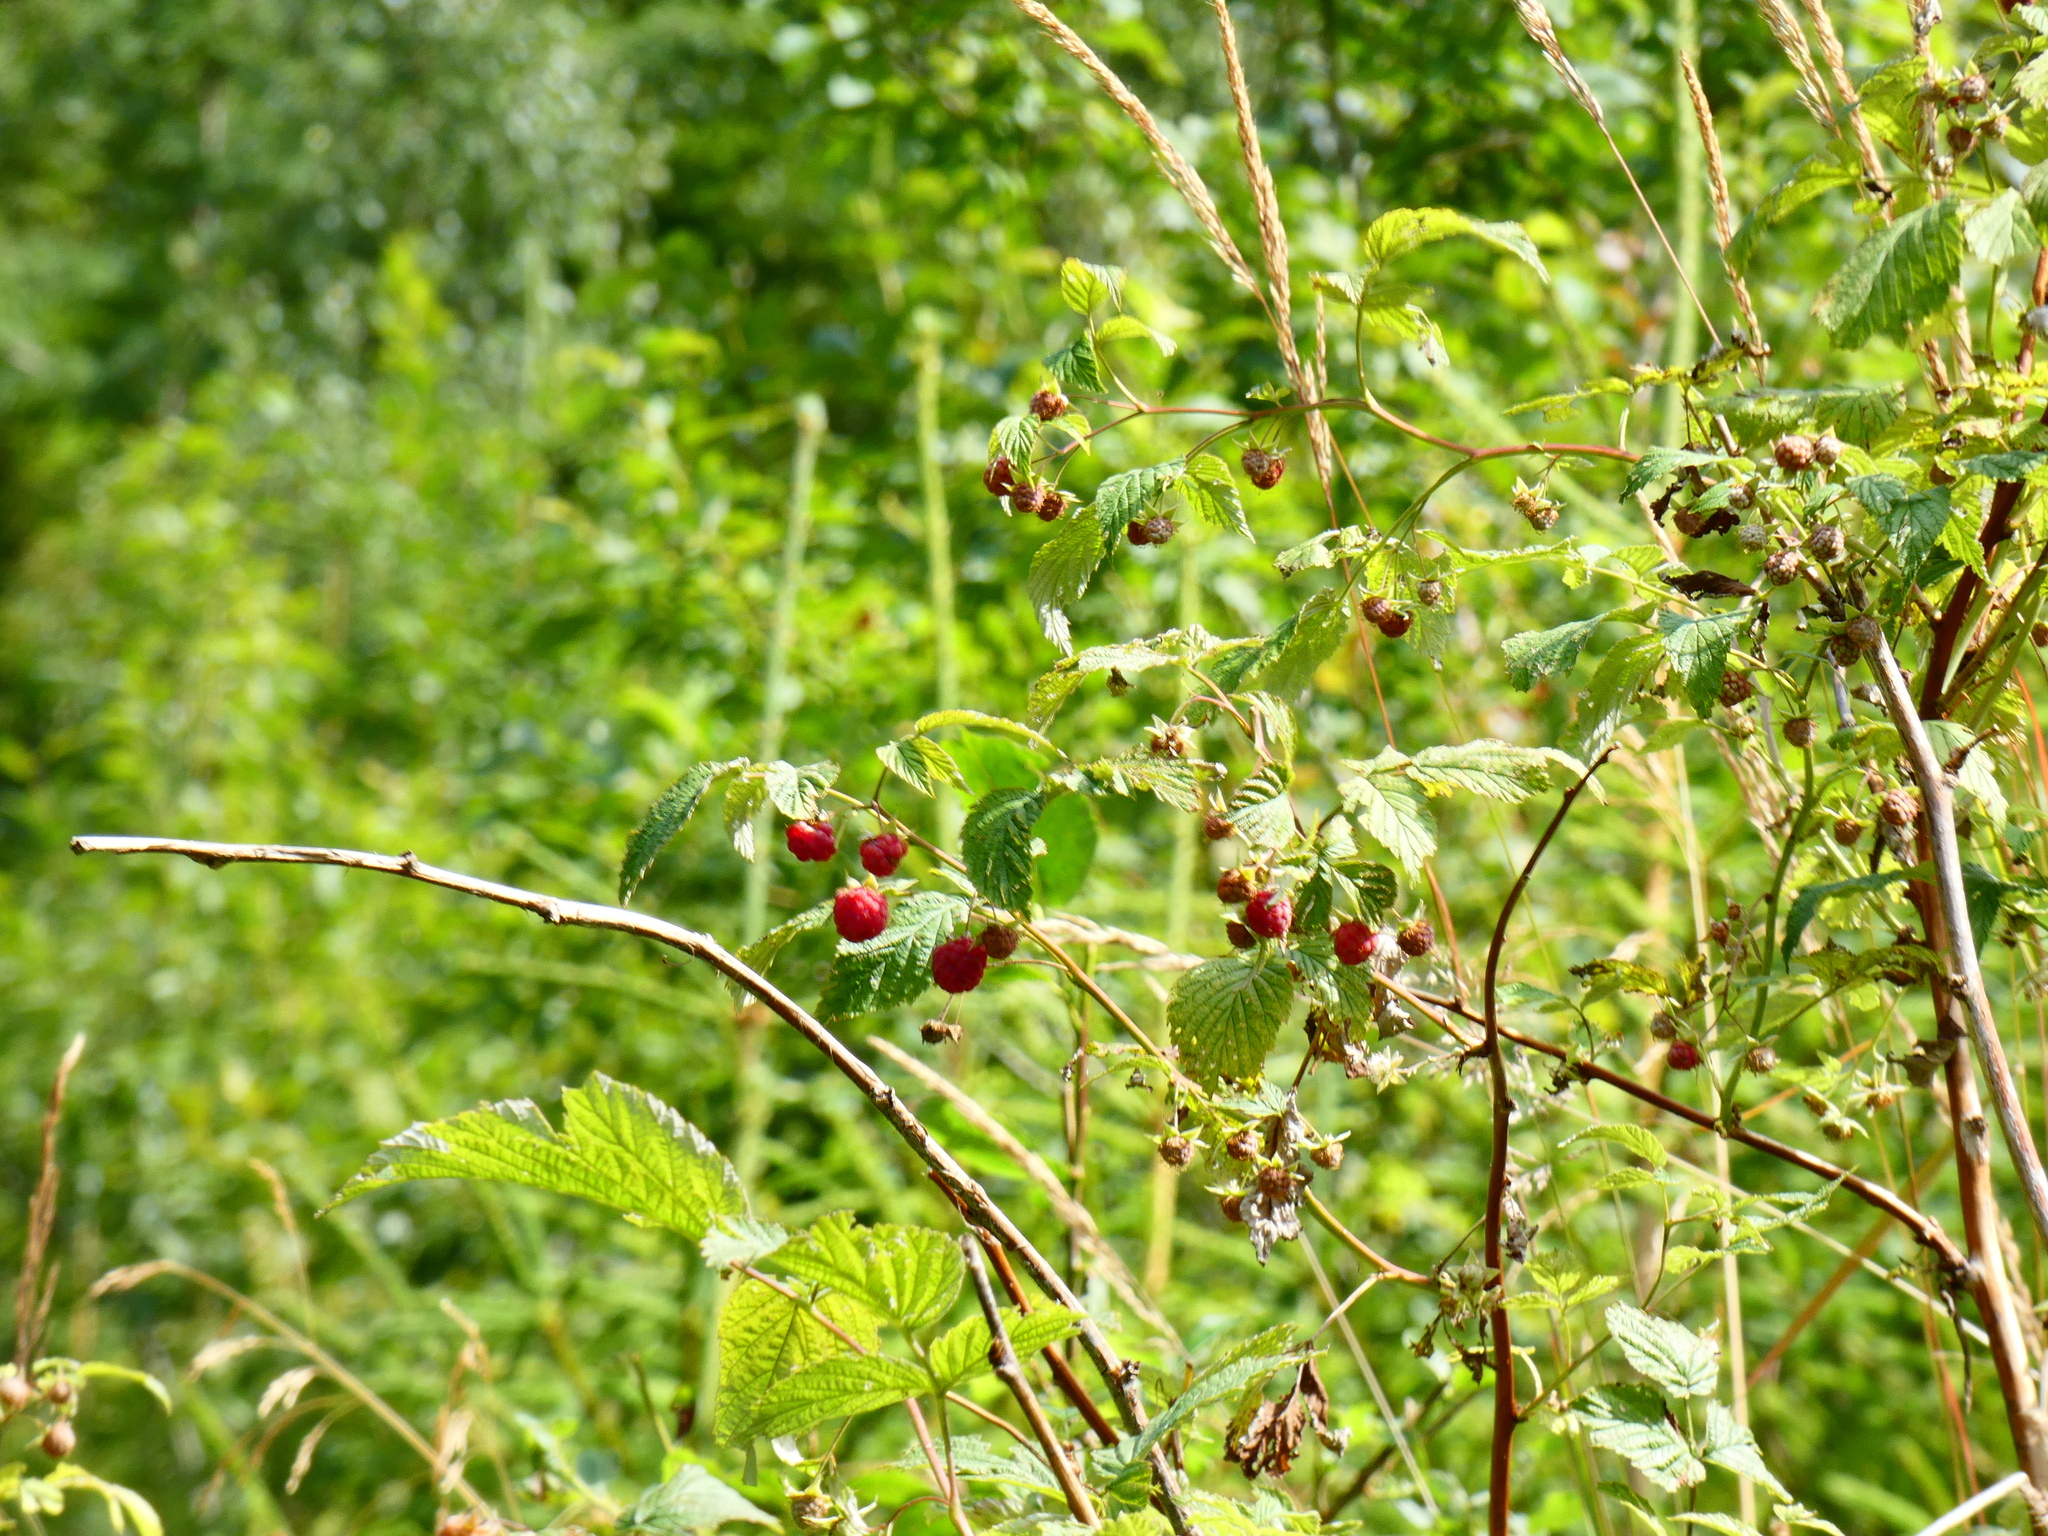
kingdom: Plantae
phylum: Tracheophyta
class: Magnoliopsida
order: Rosales
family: Rosaceae
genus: Rubus
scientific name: Rubus idaeus
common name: Raspberry
